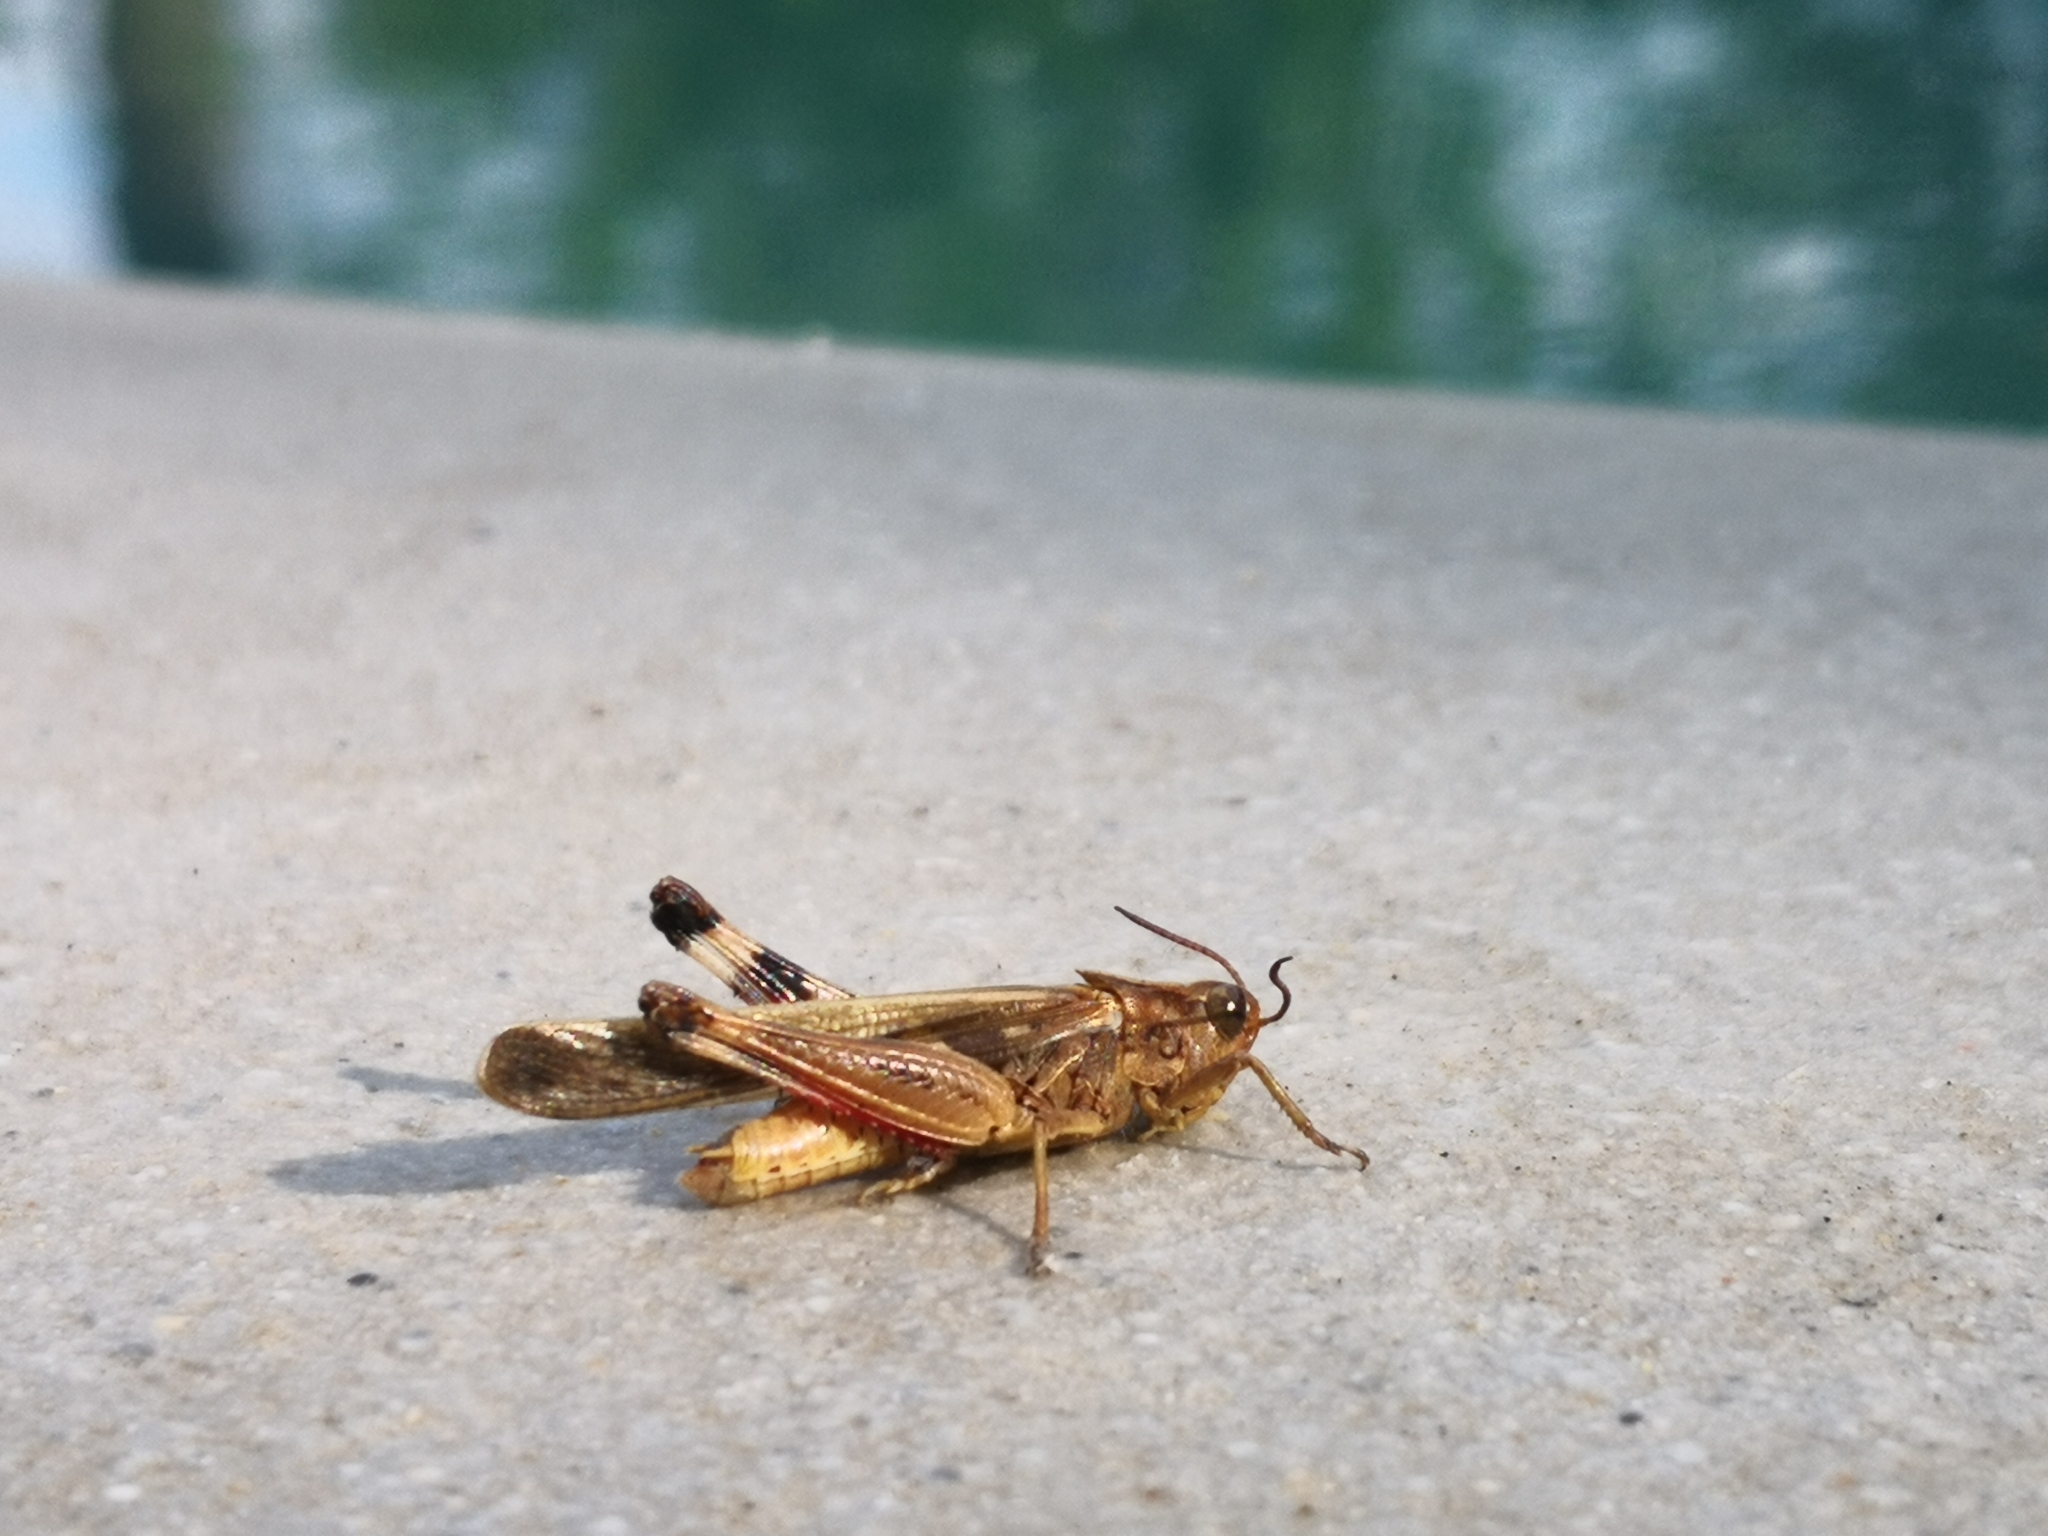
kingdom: Animalia
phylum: Arthropoda
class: Insecta
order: Orthoptera
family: Acrididae
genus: Aiolopus
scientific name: Aiolopus thalassinus
